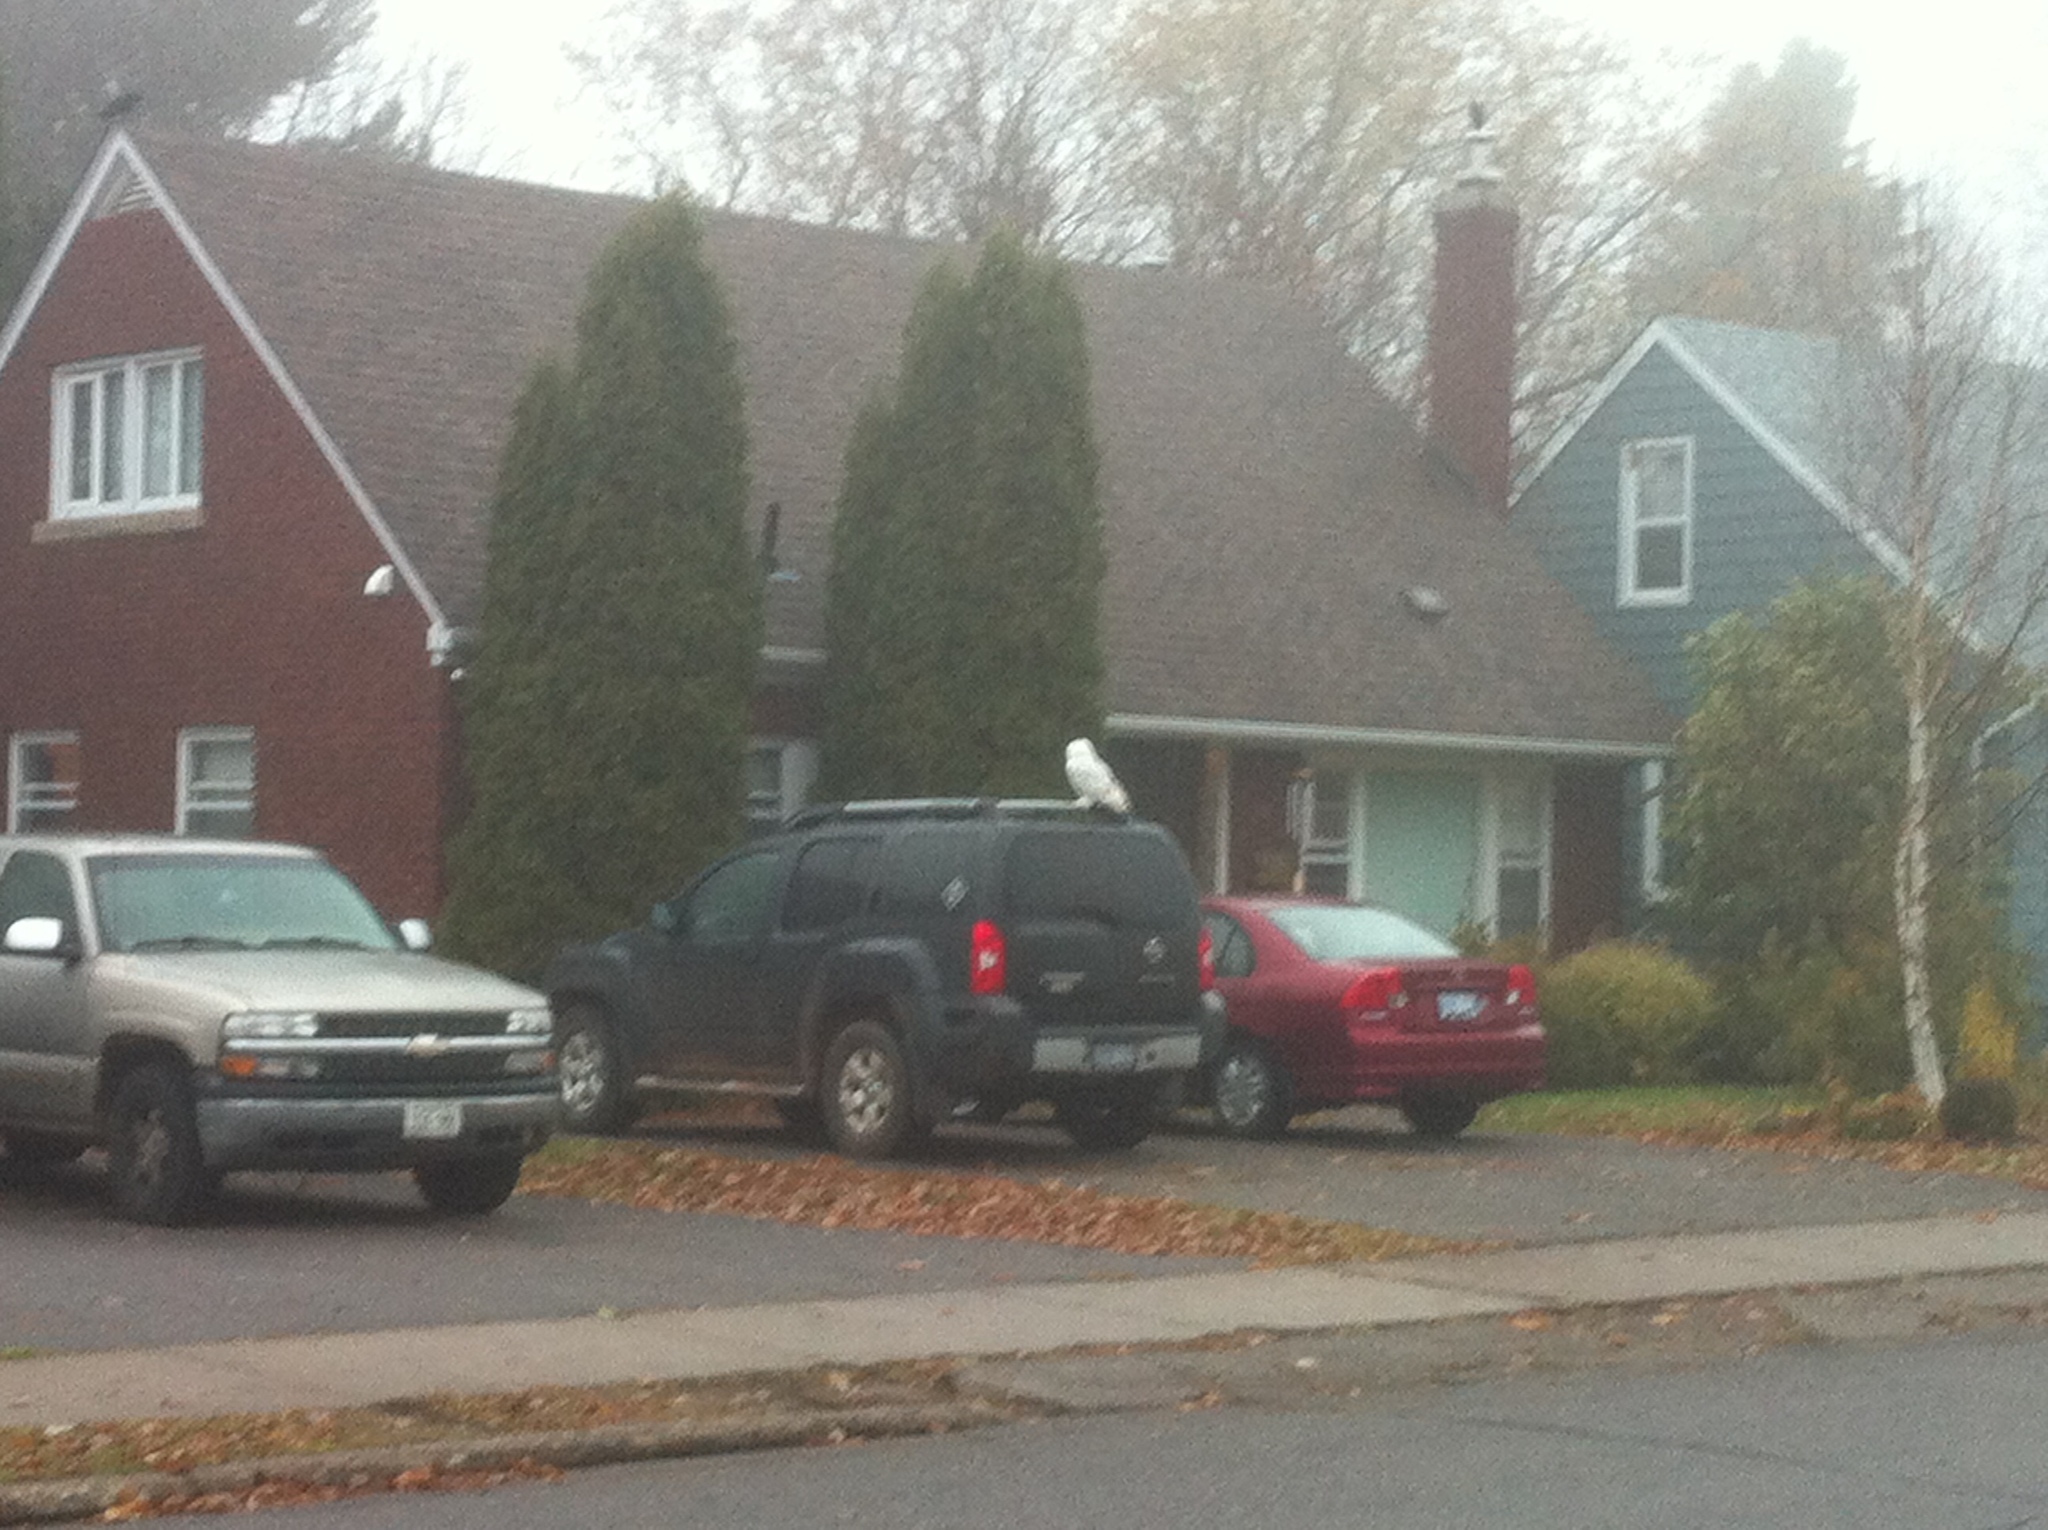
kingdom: Animalia
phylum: Chordata
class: Aves
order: Strigiformes
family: Strigidae
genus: Bubo
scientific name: Bubo scandiacus
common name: Snowy owl
